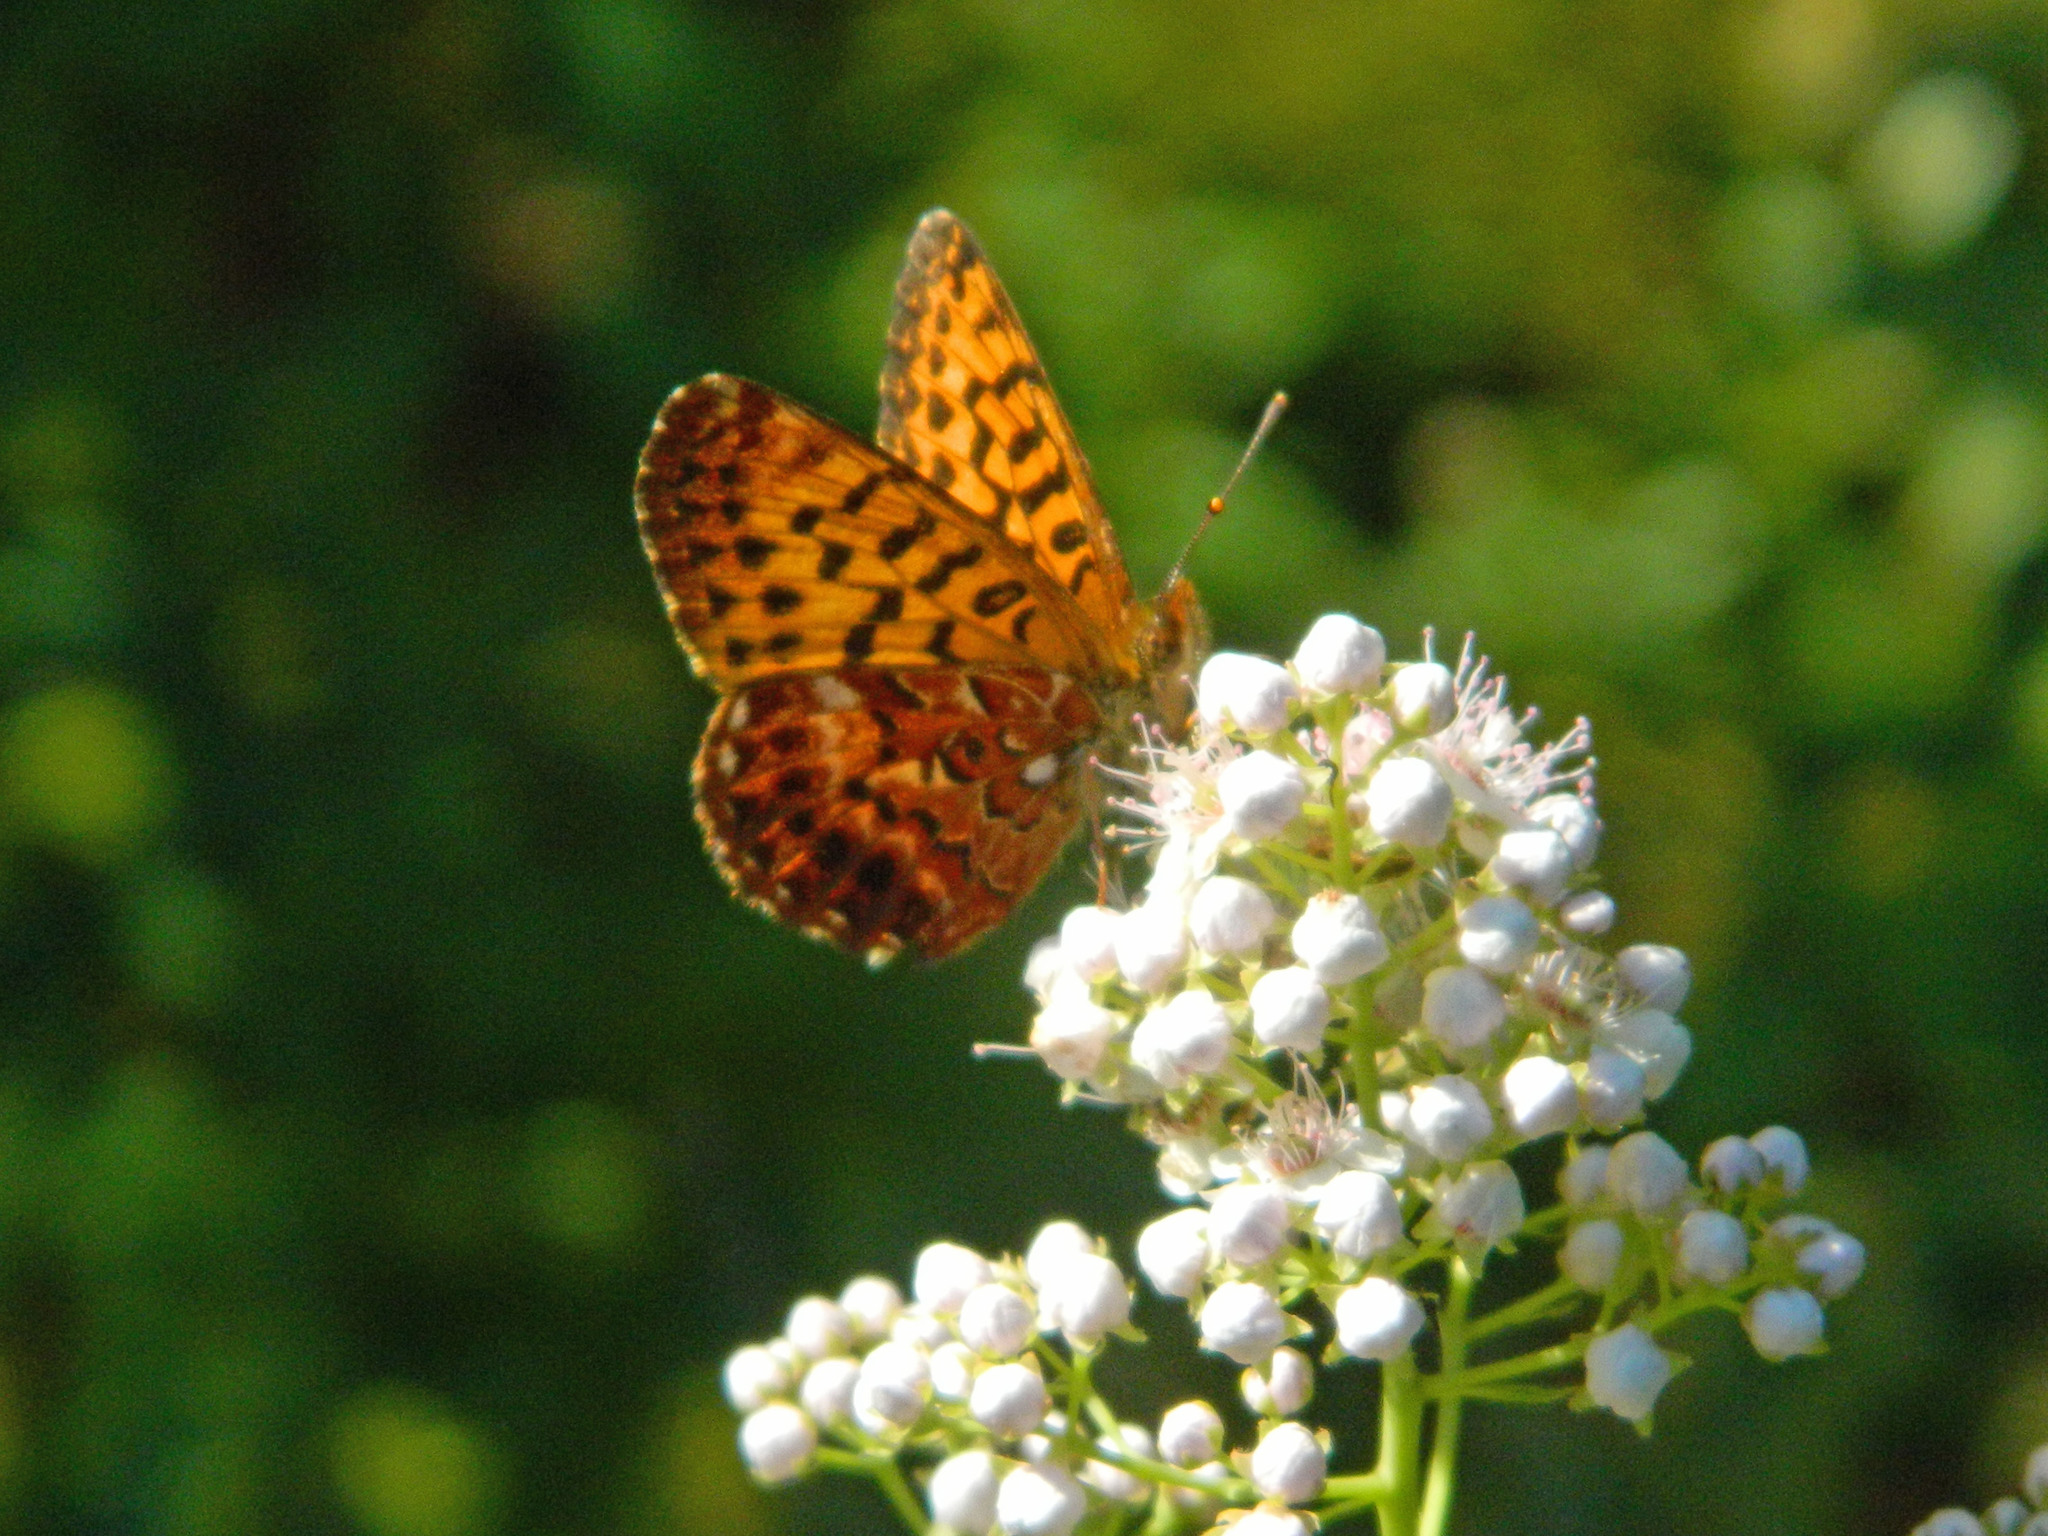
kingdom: Animalia
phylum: Arthropoda
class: Insecta
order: Lepidoptera
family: Nymphalidae
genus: Clossiana
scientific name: Clossiana chariclea
